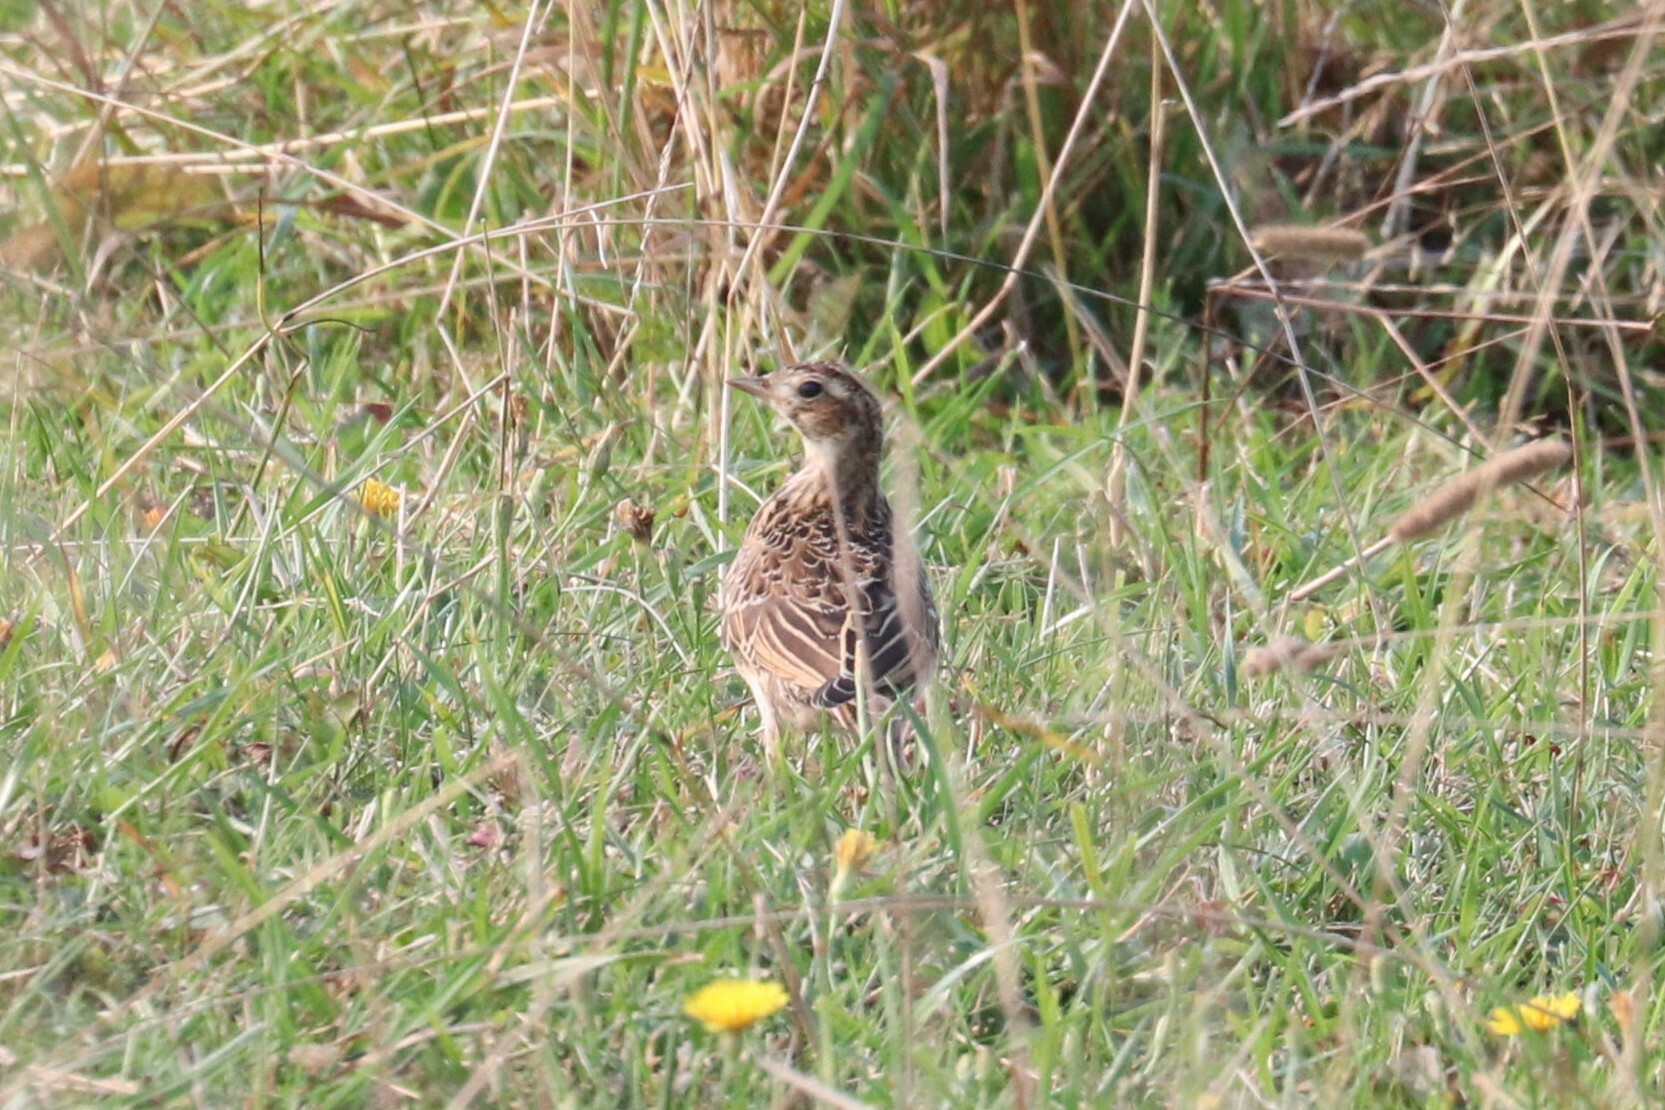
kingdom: Animalia
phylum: Chordata
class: Aves
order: Passeriformes
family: Alaudidae
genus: Alauda
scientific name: Alauda arvensis
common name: Eurasian skylark
